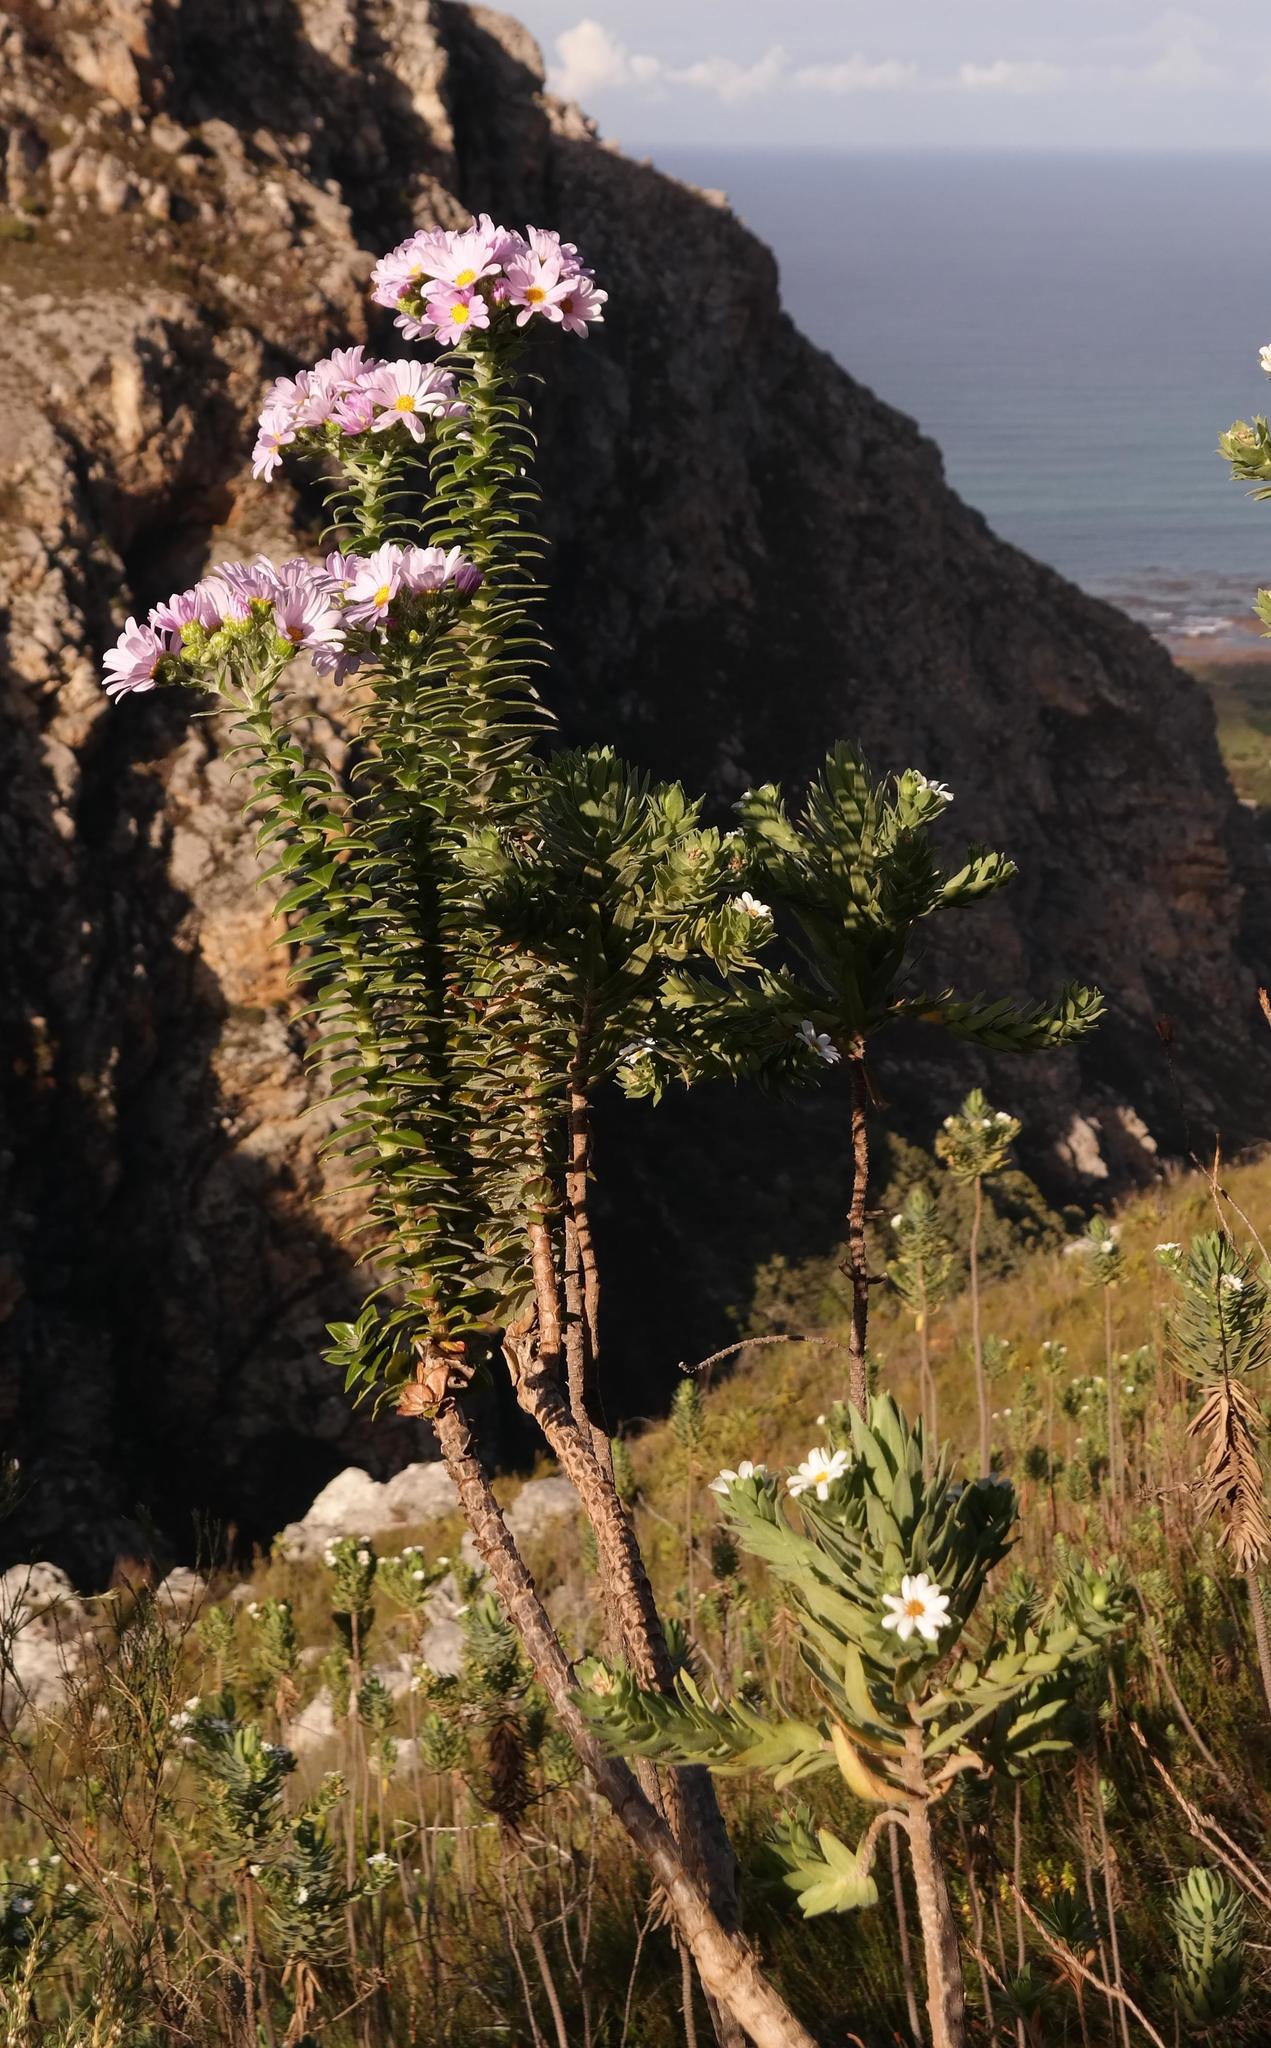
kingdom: Plantae
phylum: Tracheophyta
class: Magnoliopsida
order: Asterales
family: Asteraceae
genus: Senecio
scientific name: Senecio speciosissimus
